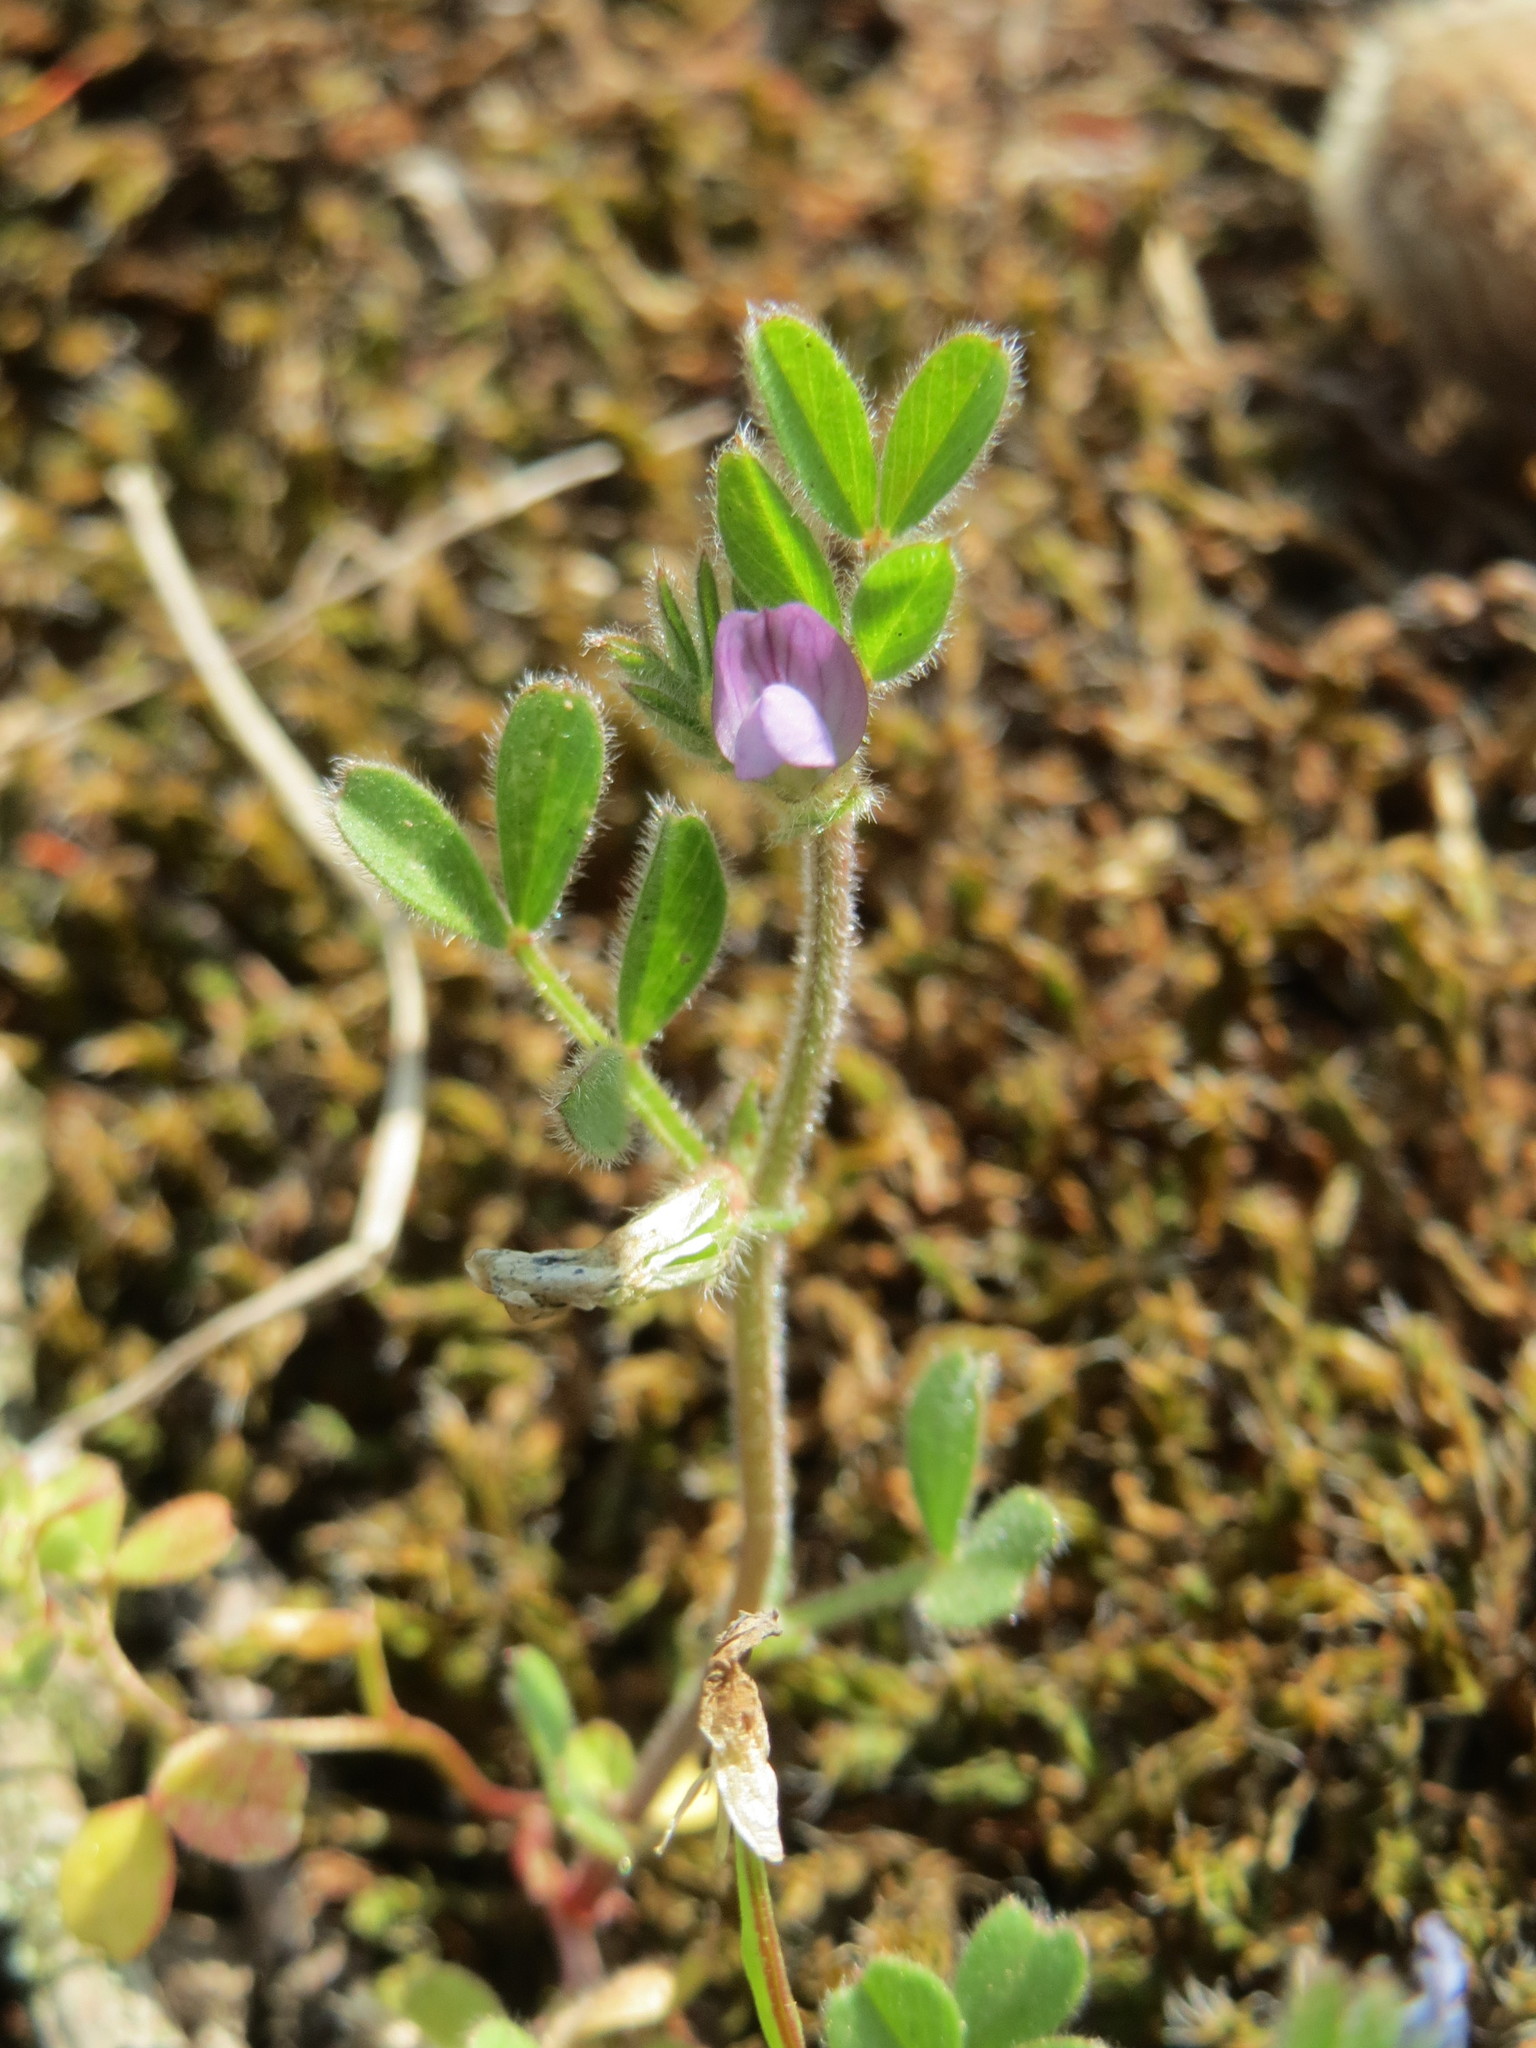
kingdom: Plantae
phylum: Tracheophyta
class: Magnoliopsida
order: Fabales
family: Fabaceae
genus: Vicia
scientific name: Vicia lathyroides
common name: Spring vetch
